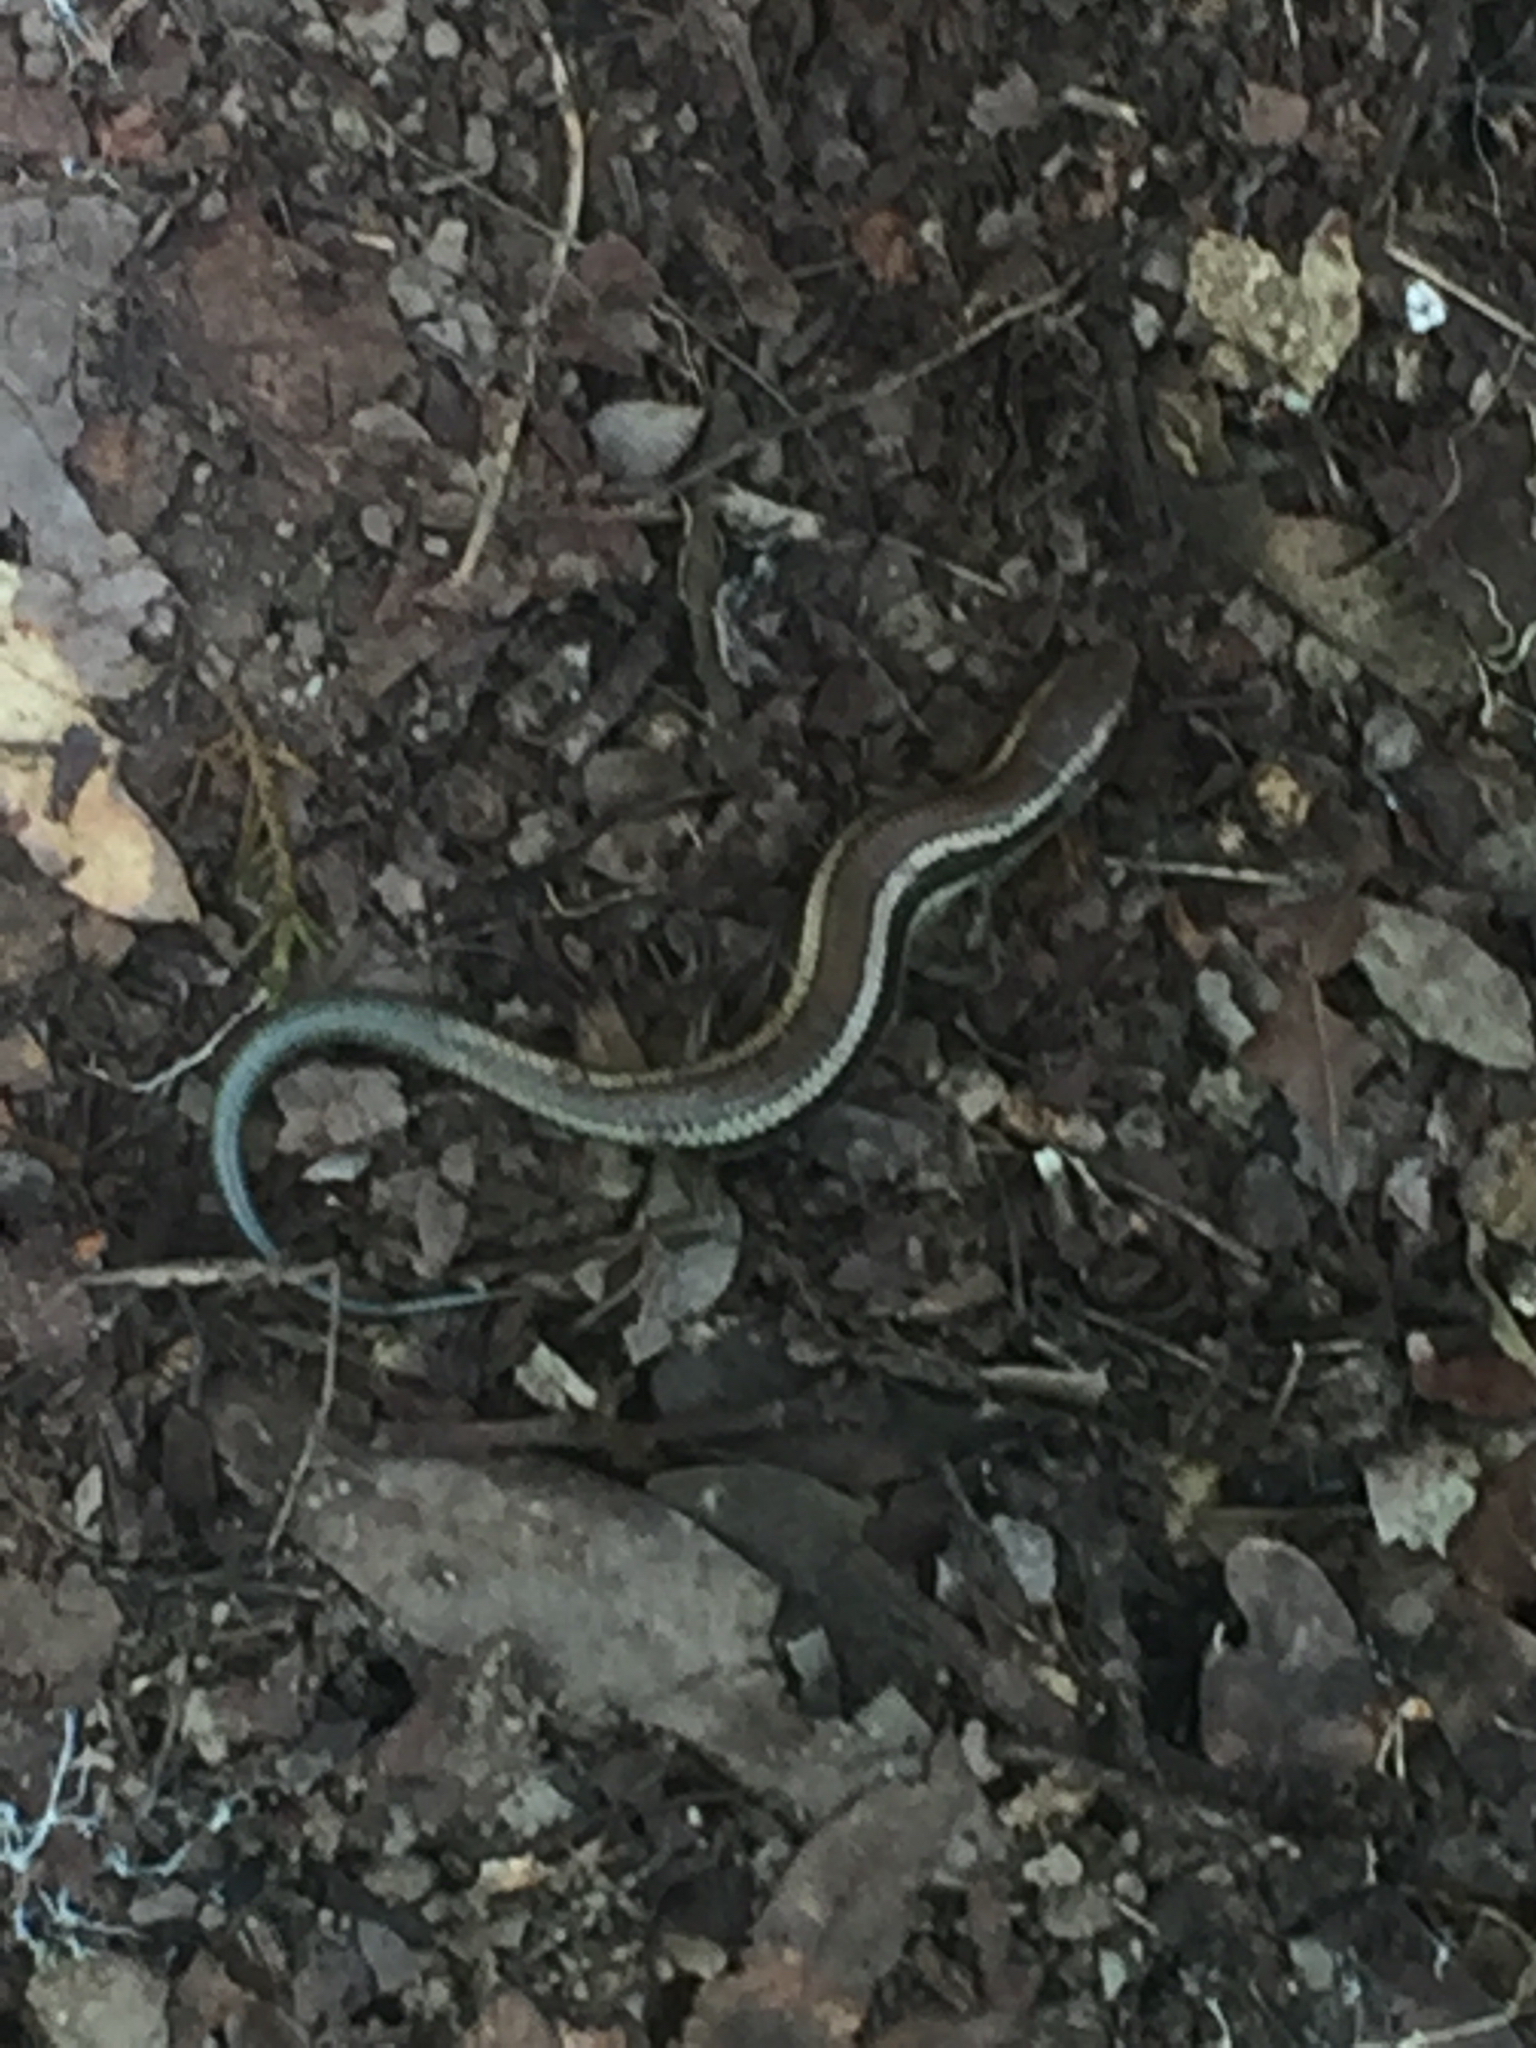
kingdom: Animalia
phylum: Chordata
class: Squamata
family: Scincidae
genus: Plestiodon
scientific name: Plestiodon skiltonianus
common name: Coronado island skink [interparietalis]
